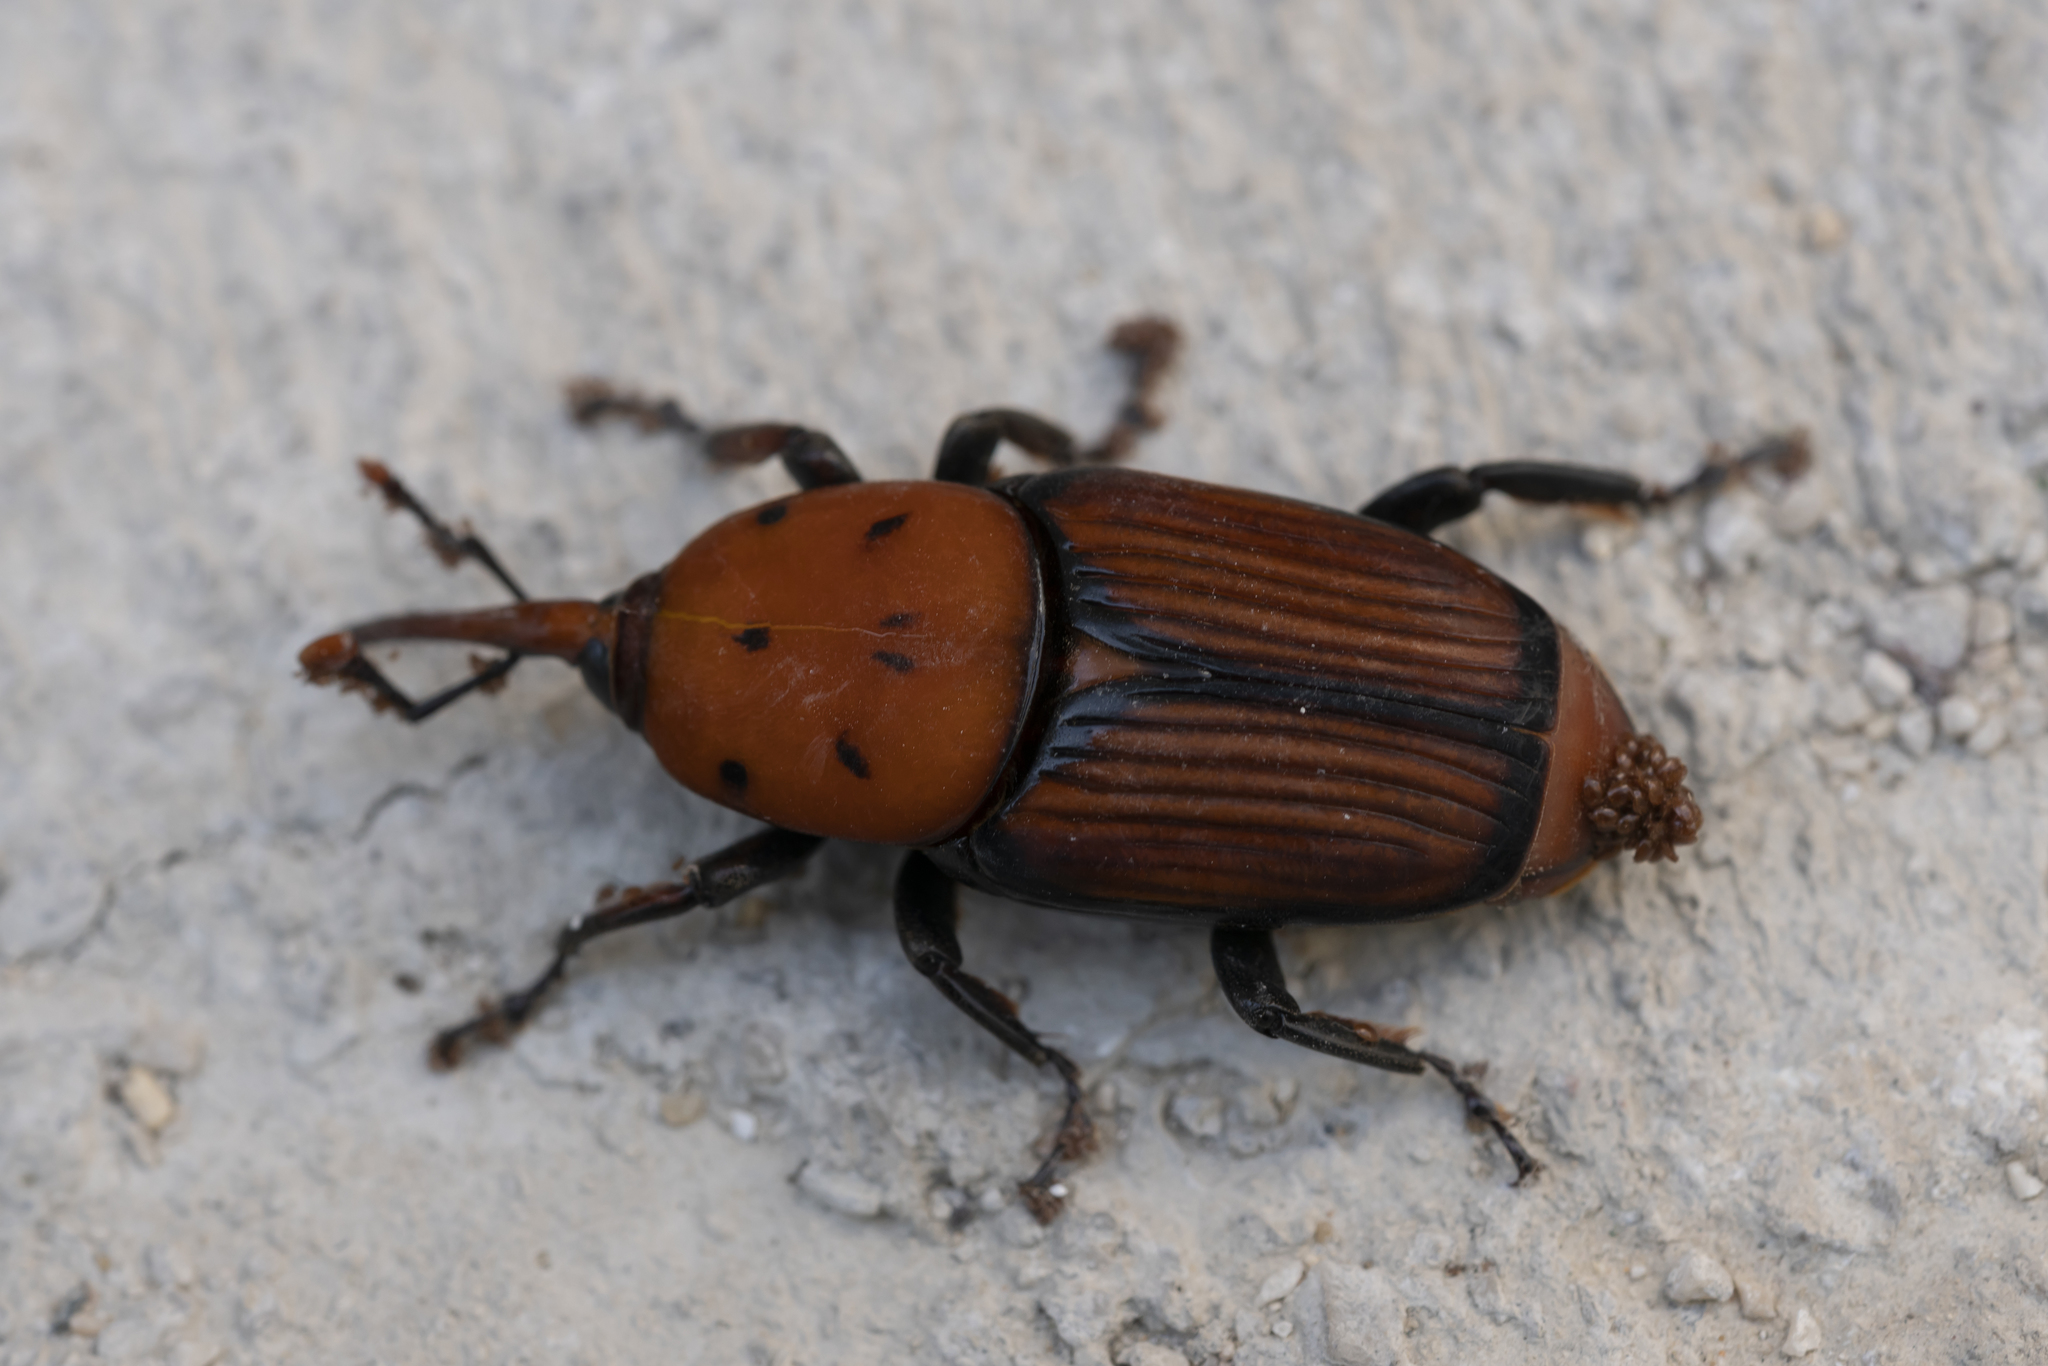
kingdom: Animalia
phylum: Arthropoda
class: Insecta
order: Coleoptera
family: Dryophthoridae
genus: Rhynchophorus
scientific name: Rhynchophorus ferrugineus
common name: Red palm weevil
